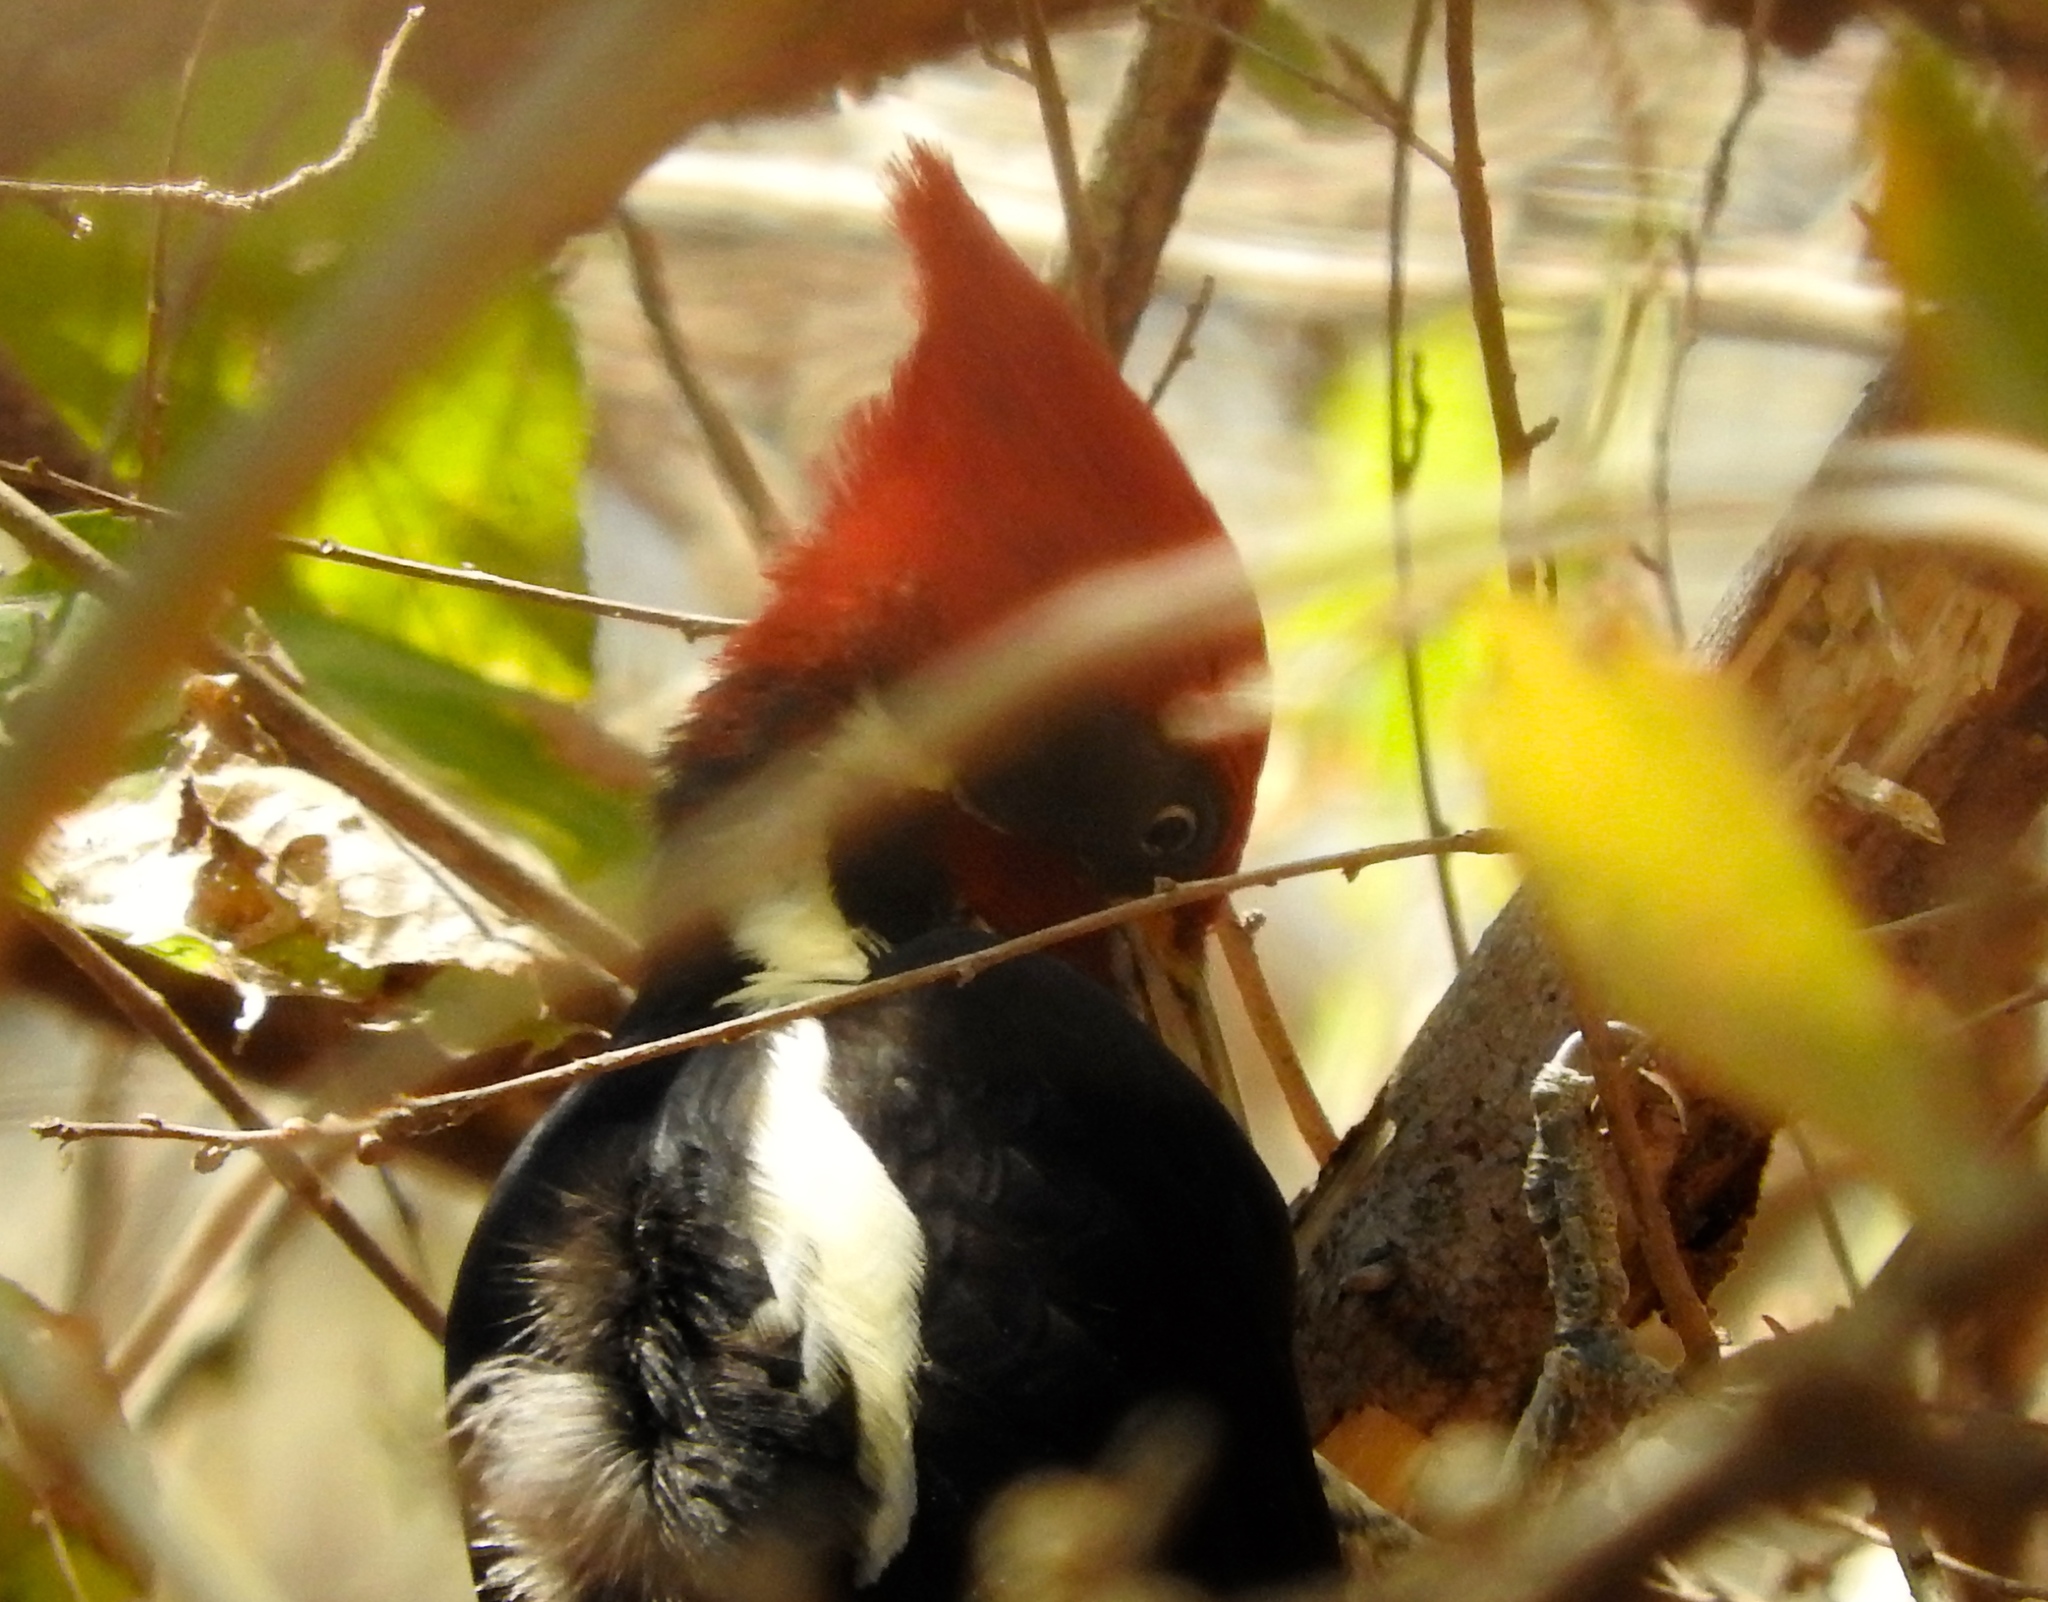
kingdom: Animalia
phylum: Chordata
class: Aves
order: Piciformes
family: Picidae
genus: Dryocopus
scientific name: Dryocopus lineatus
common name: Lineated woodpecker
